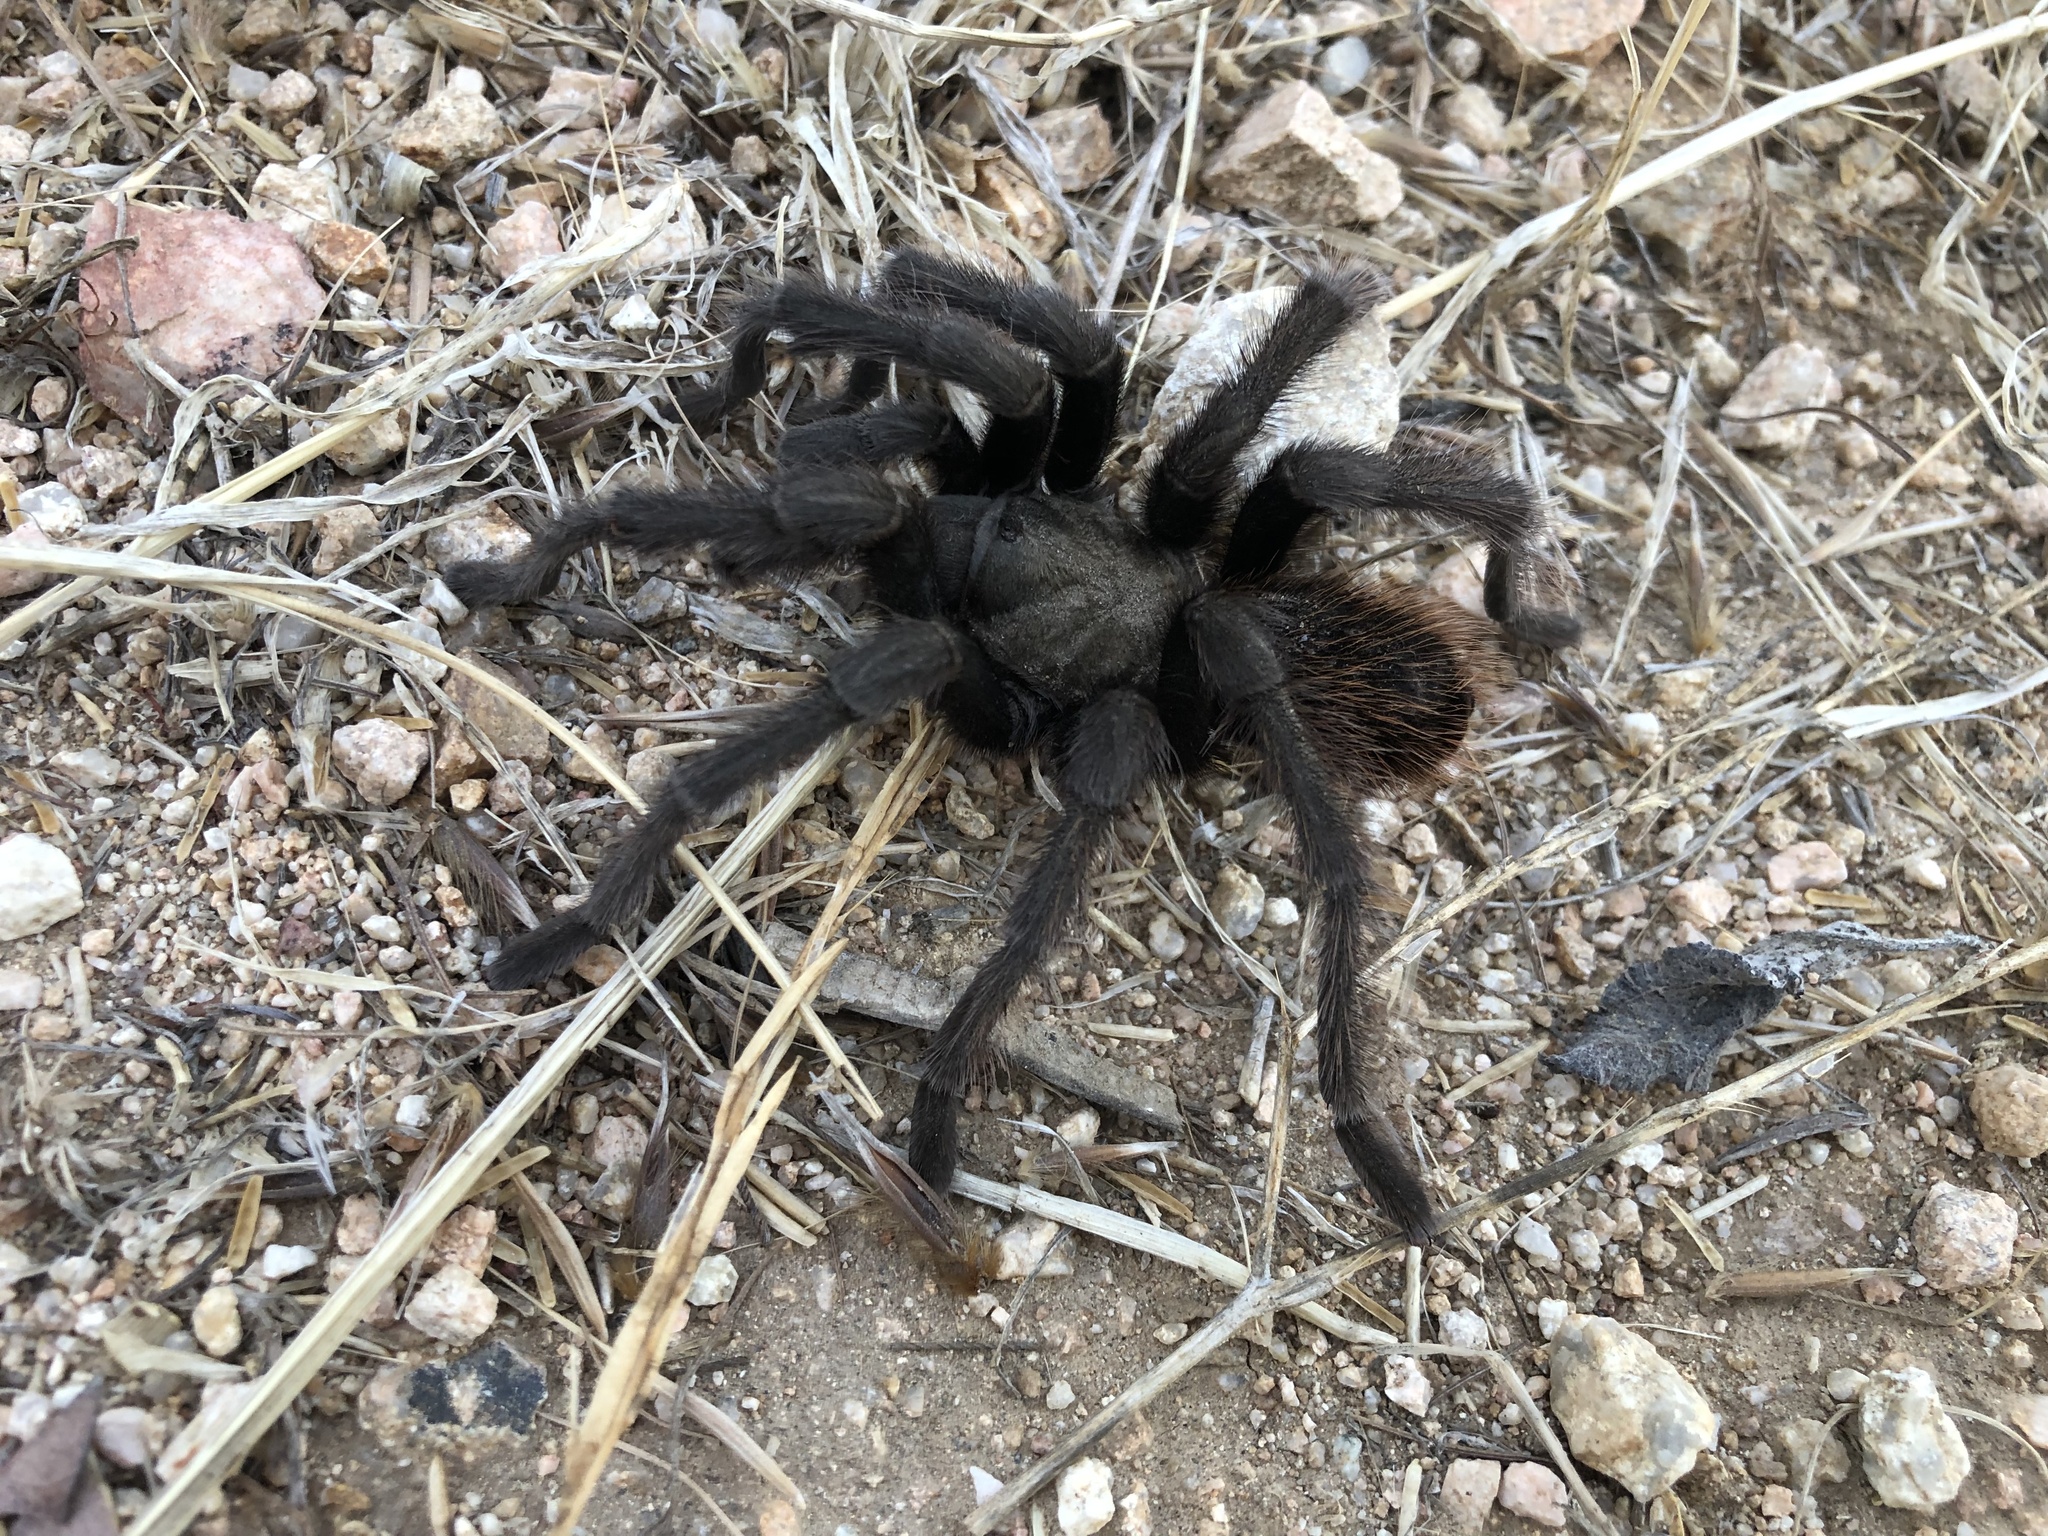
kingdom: Animalia
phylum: Arthropoda
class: Arachnida
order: Araneae
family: Theraphosidae
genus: Aphonopelma
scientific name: Aphonopelma eutylenum
